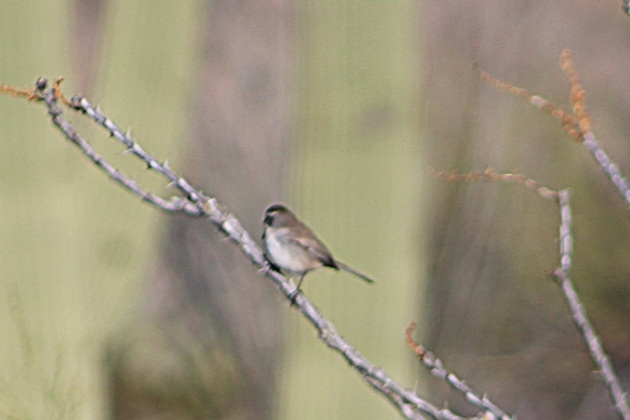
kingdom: Animalia
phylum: Chordata
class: Aves
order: Passeriformes
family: Passerellidae
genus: Amphispiza
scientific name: Amphispiza bilineata
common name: Black-throated sparrow
